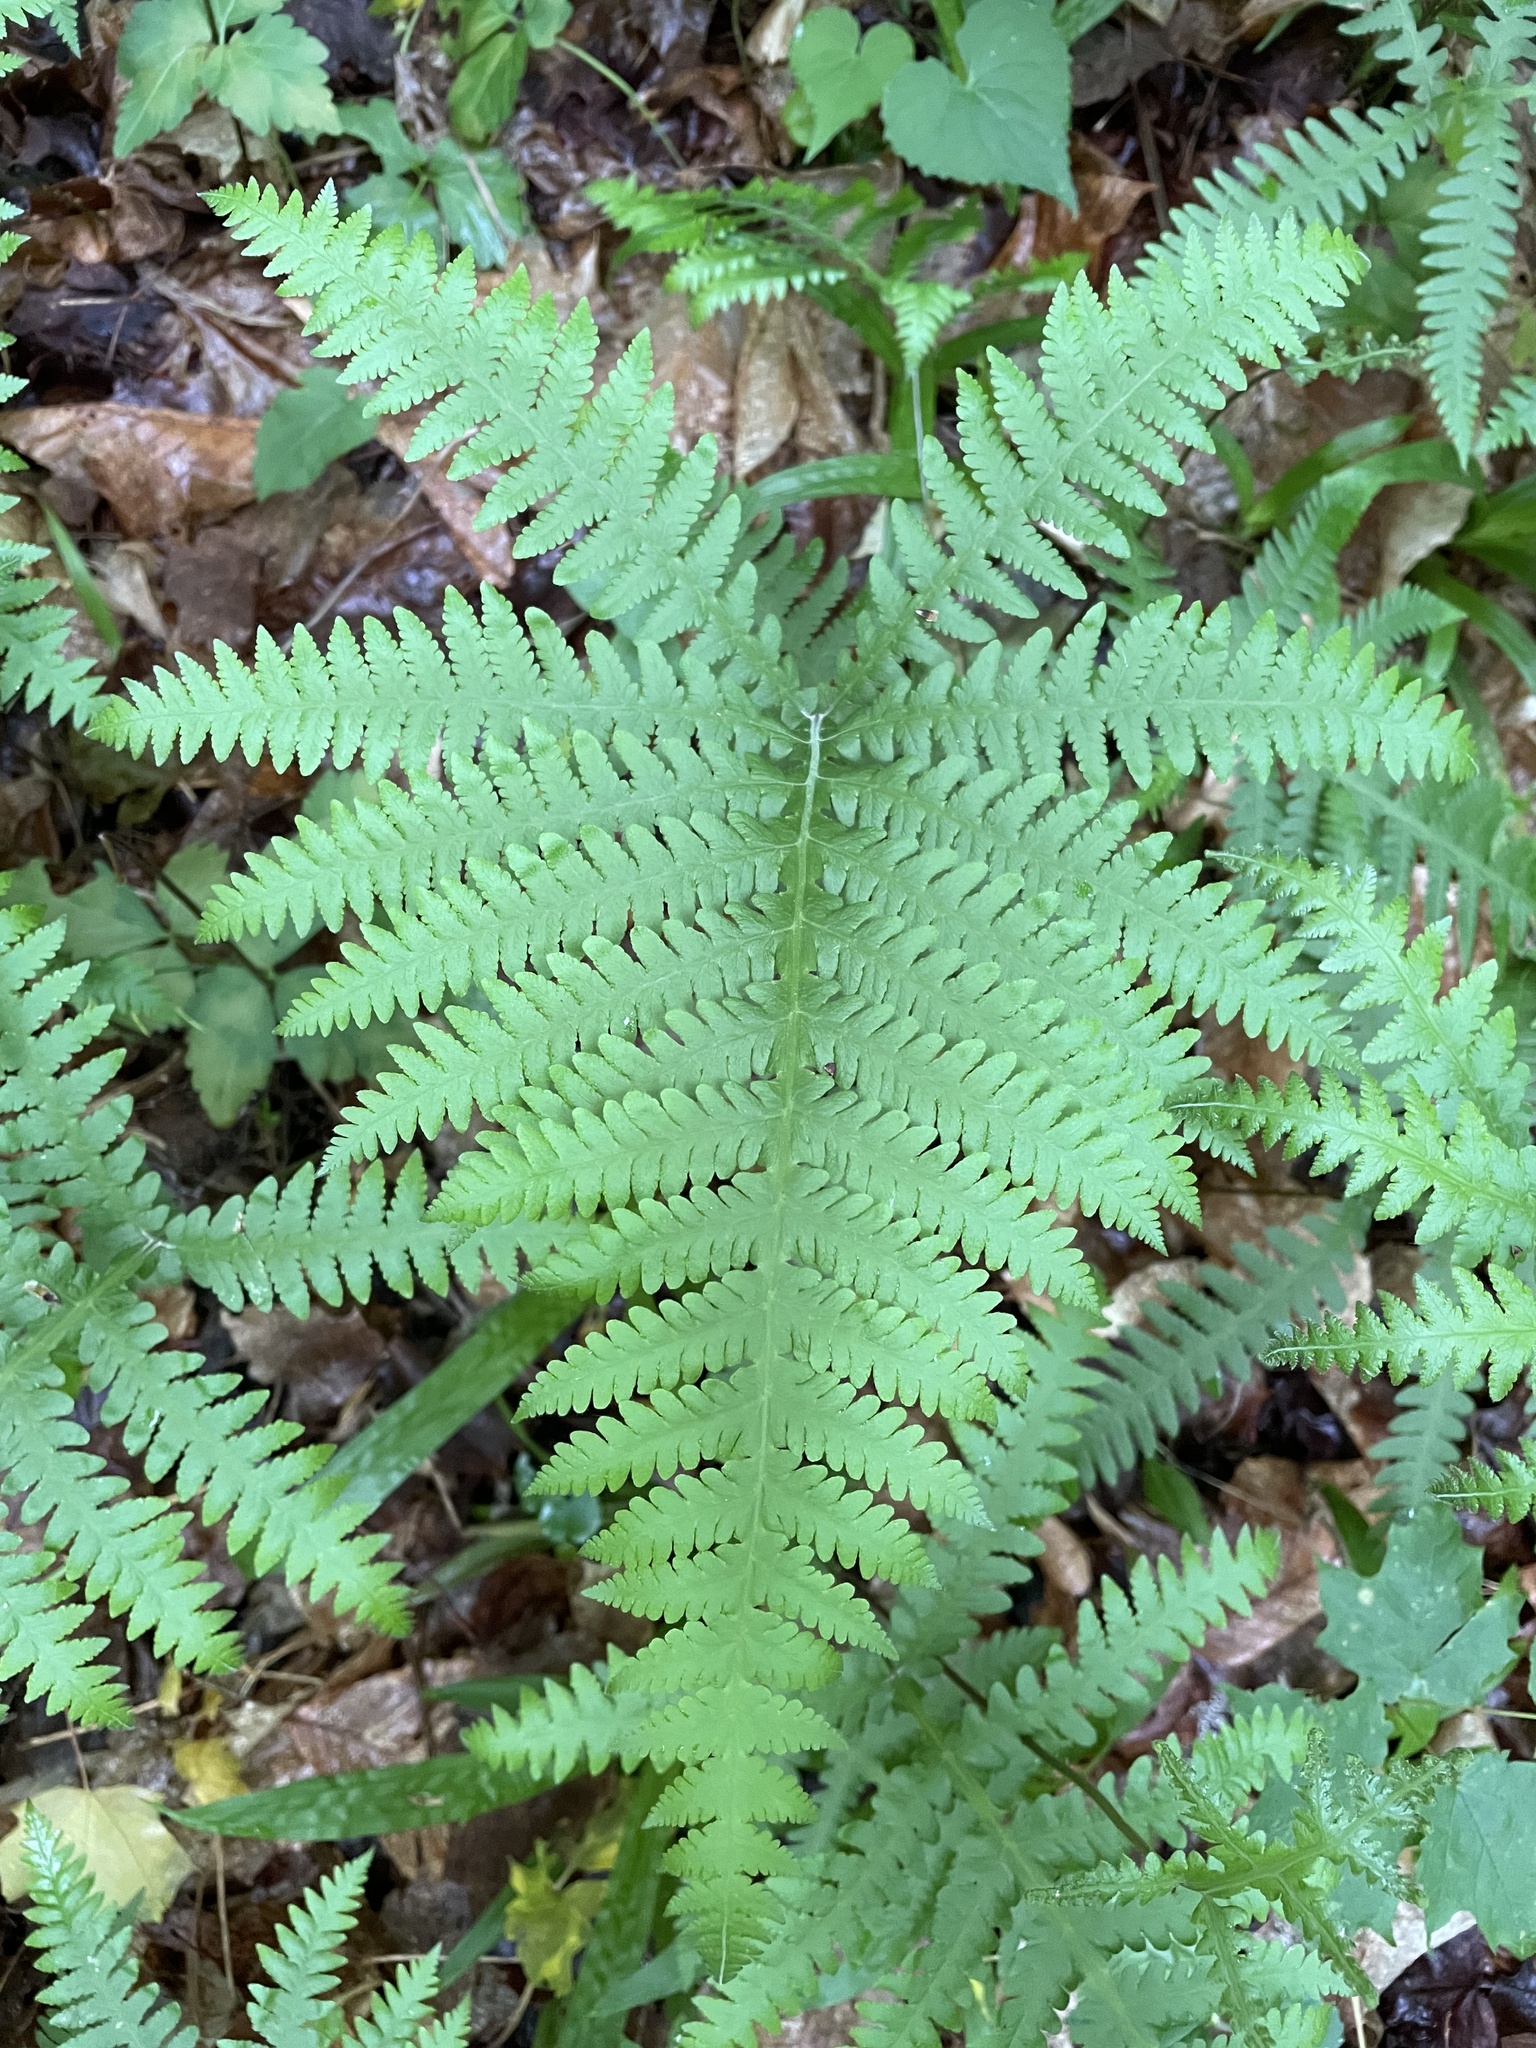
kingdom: Plantae
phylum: Tracheophyta
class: Polypodiopsida
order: Polypodiales
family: Thelypteridaceae
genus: Phegopteris
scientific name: Phegopteris hexagonoptera
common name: Broad beech fern
